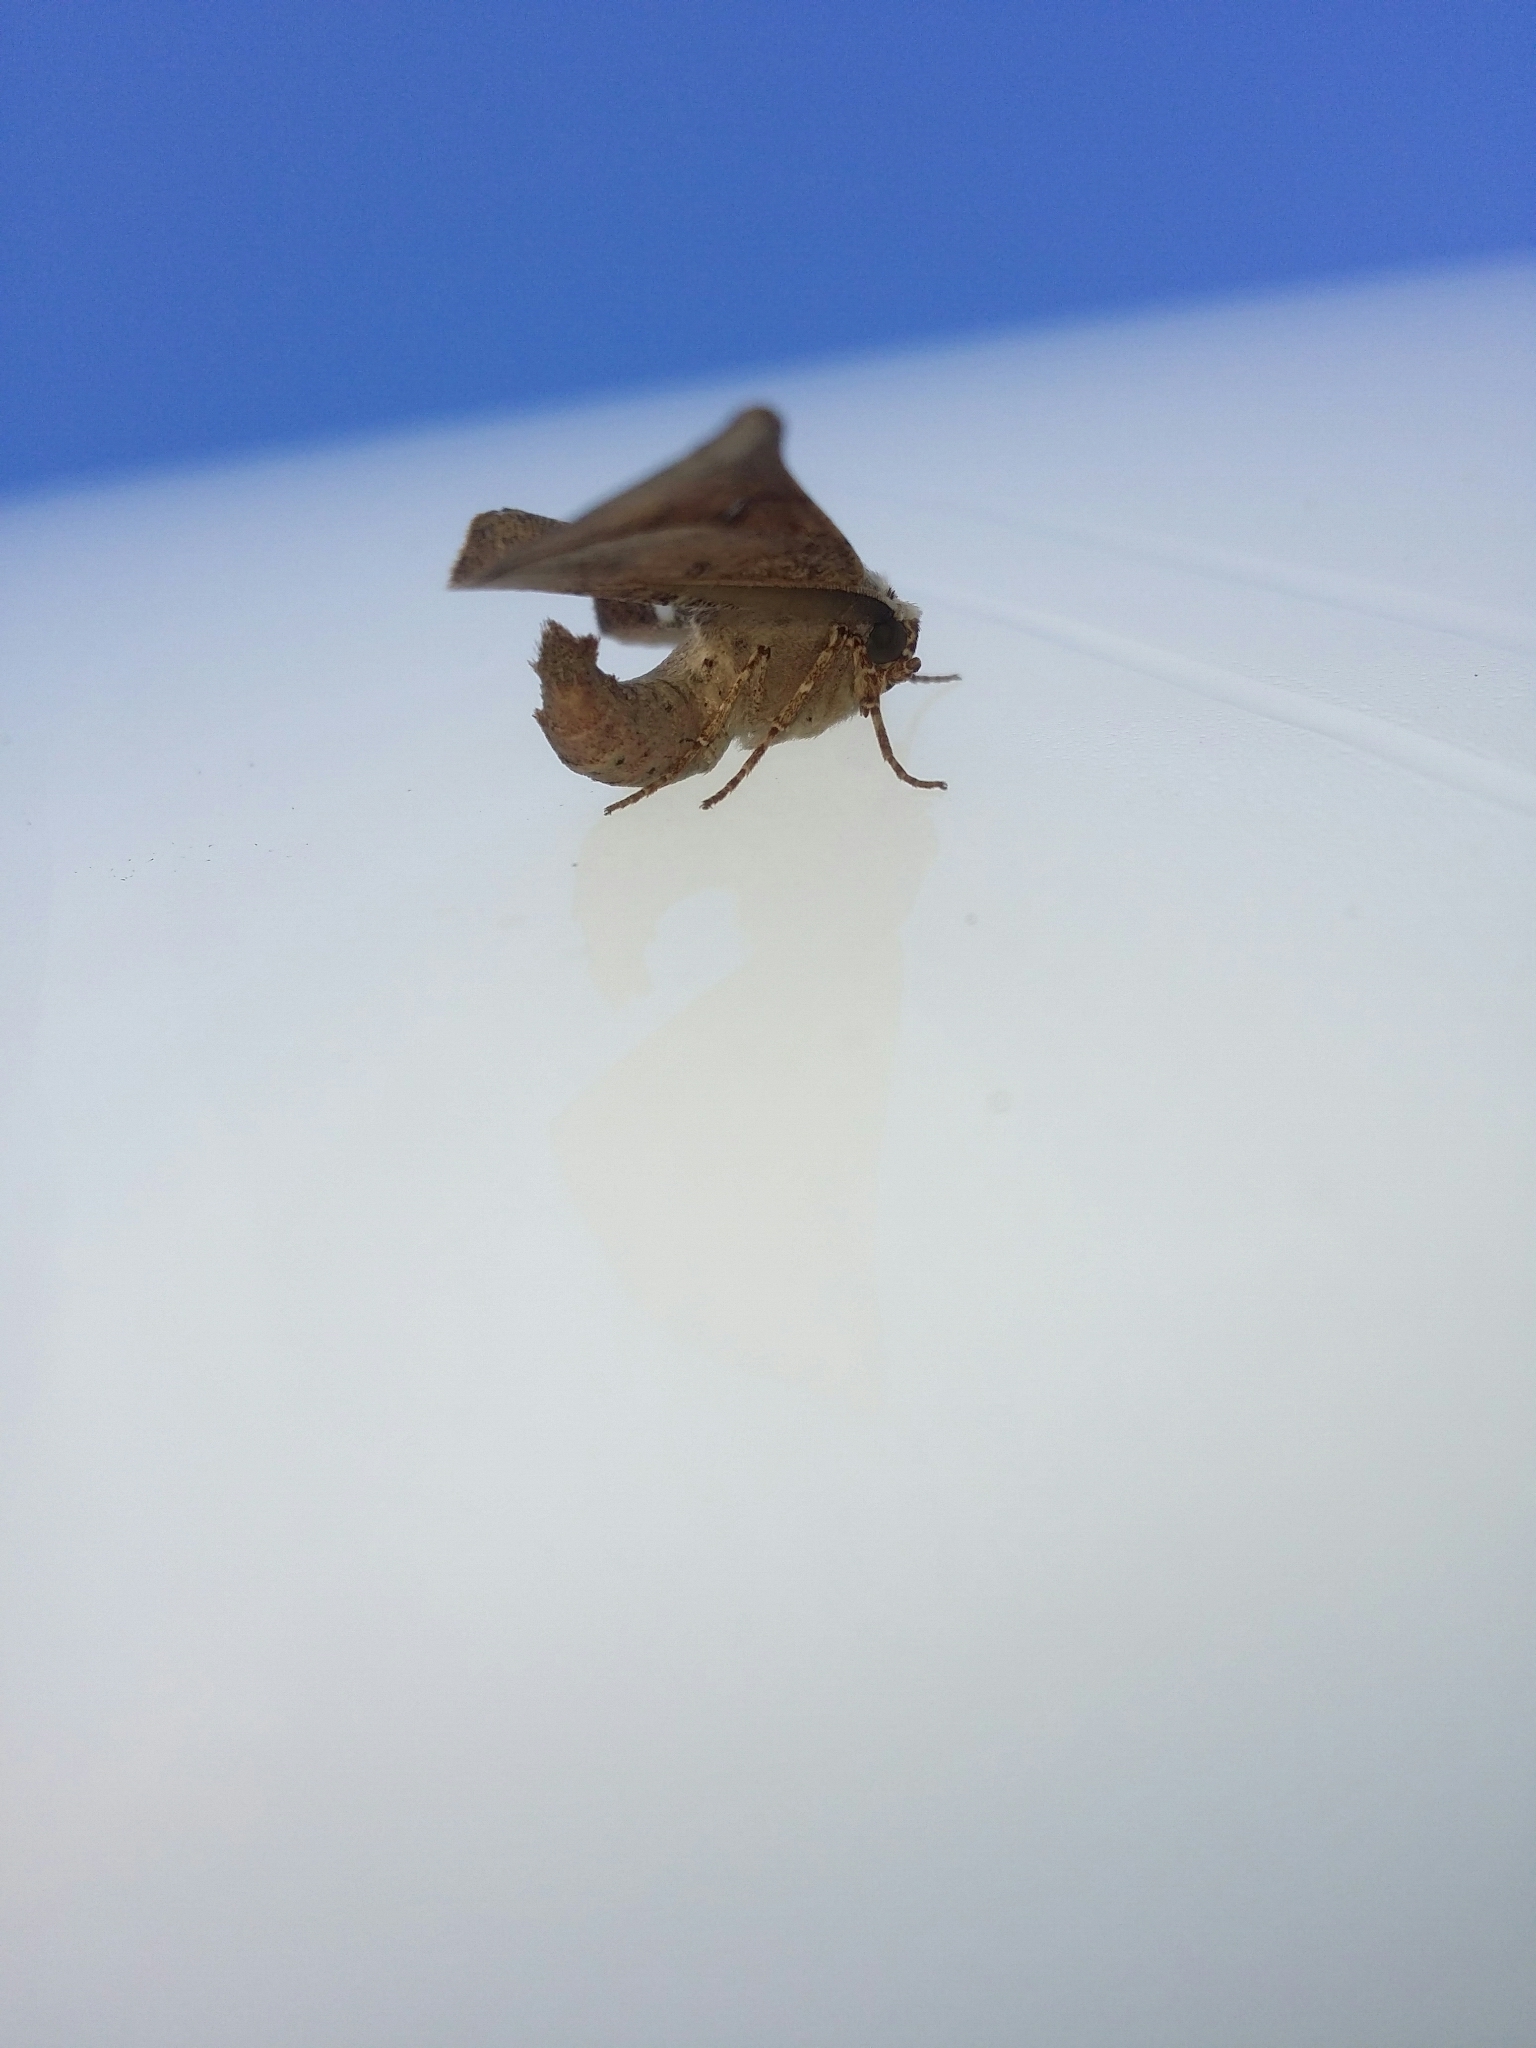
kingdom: Animalia
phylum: Arthropoda
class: Insecta
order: Lepidoptera
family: Geometridae
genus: Circopetes
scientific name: Circopetes obtusata
